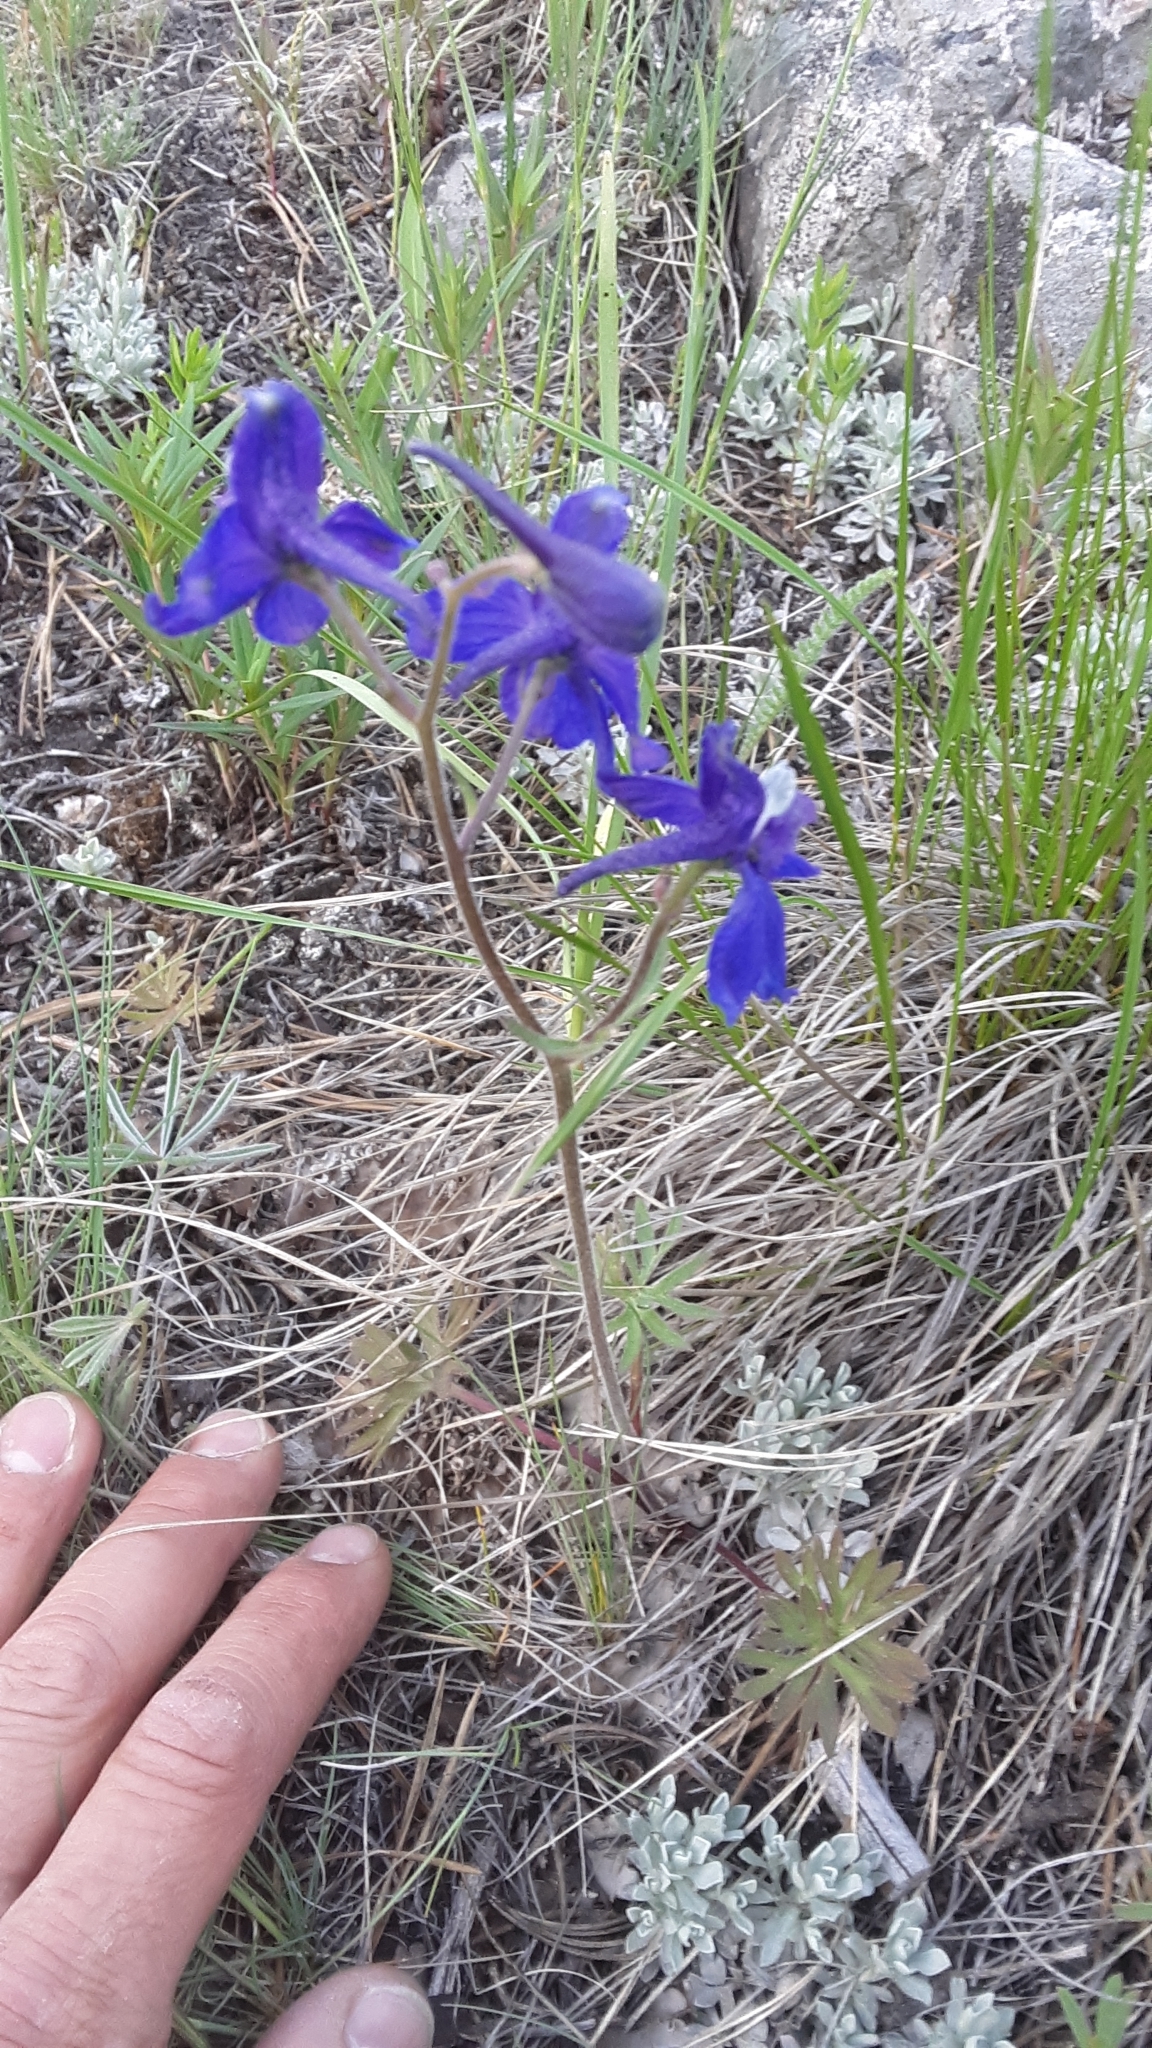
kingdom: Plantae
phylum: Tracheophyta
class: Magnoliopsida
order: Ranunculales
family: Ranunculaceae
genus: Delphinium
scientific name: Delphinium bicolor
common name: Low larkspur
